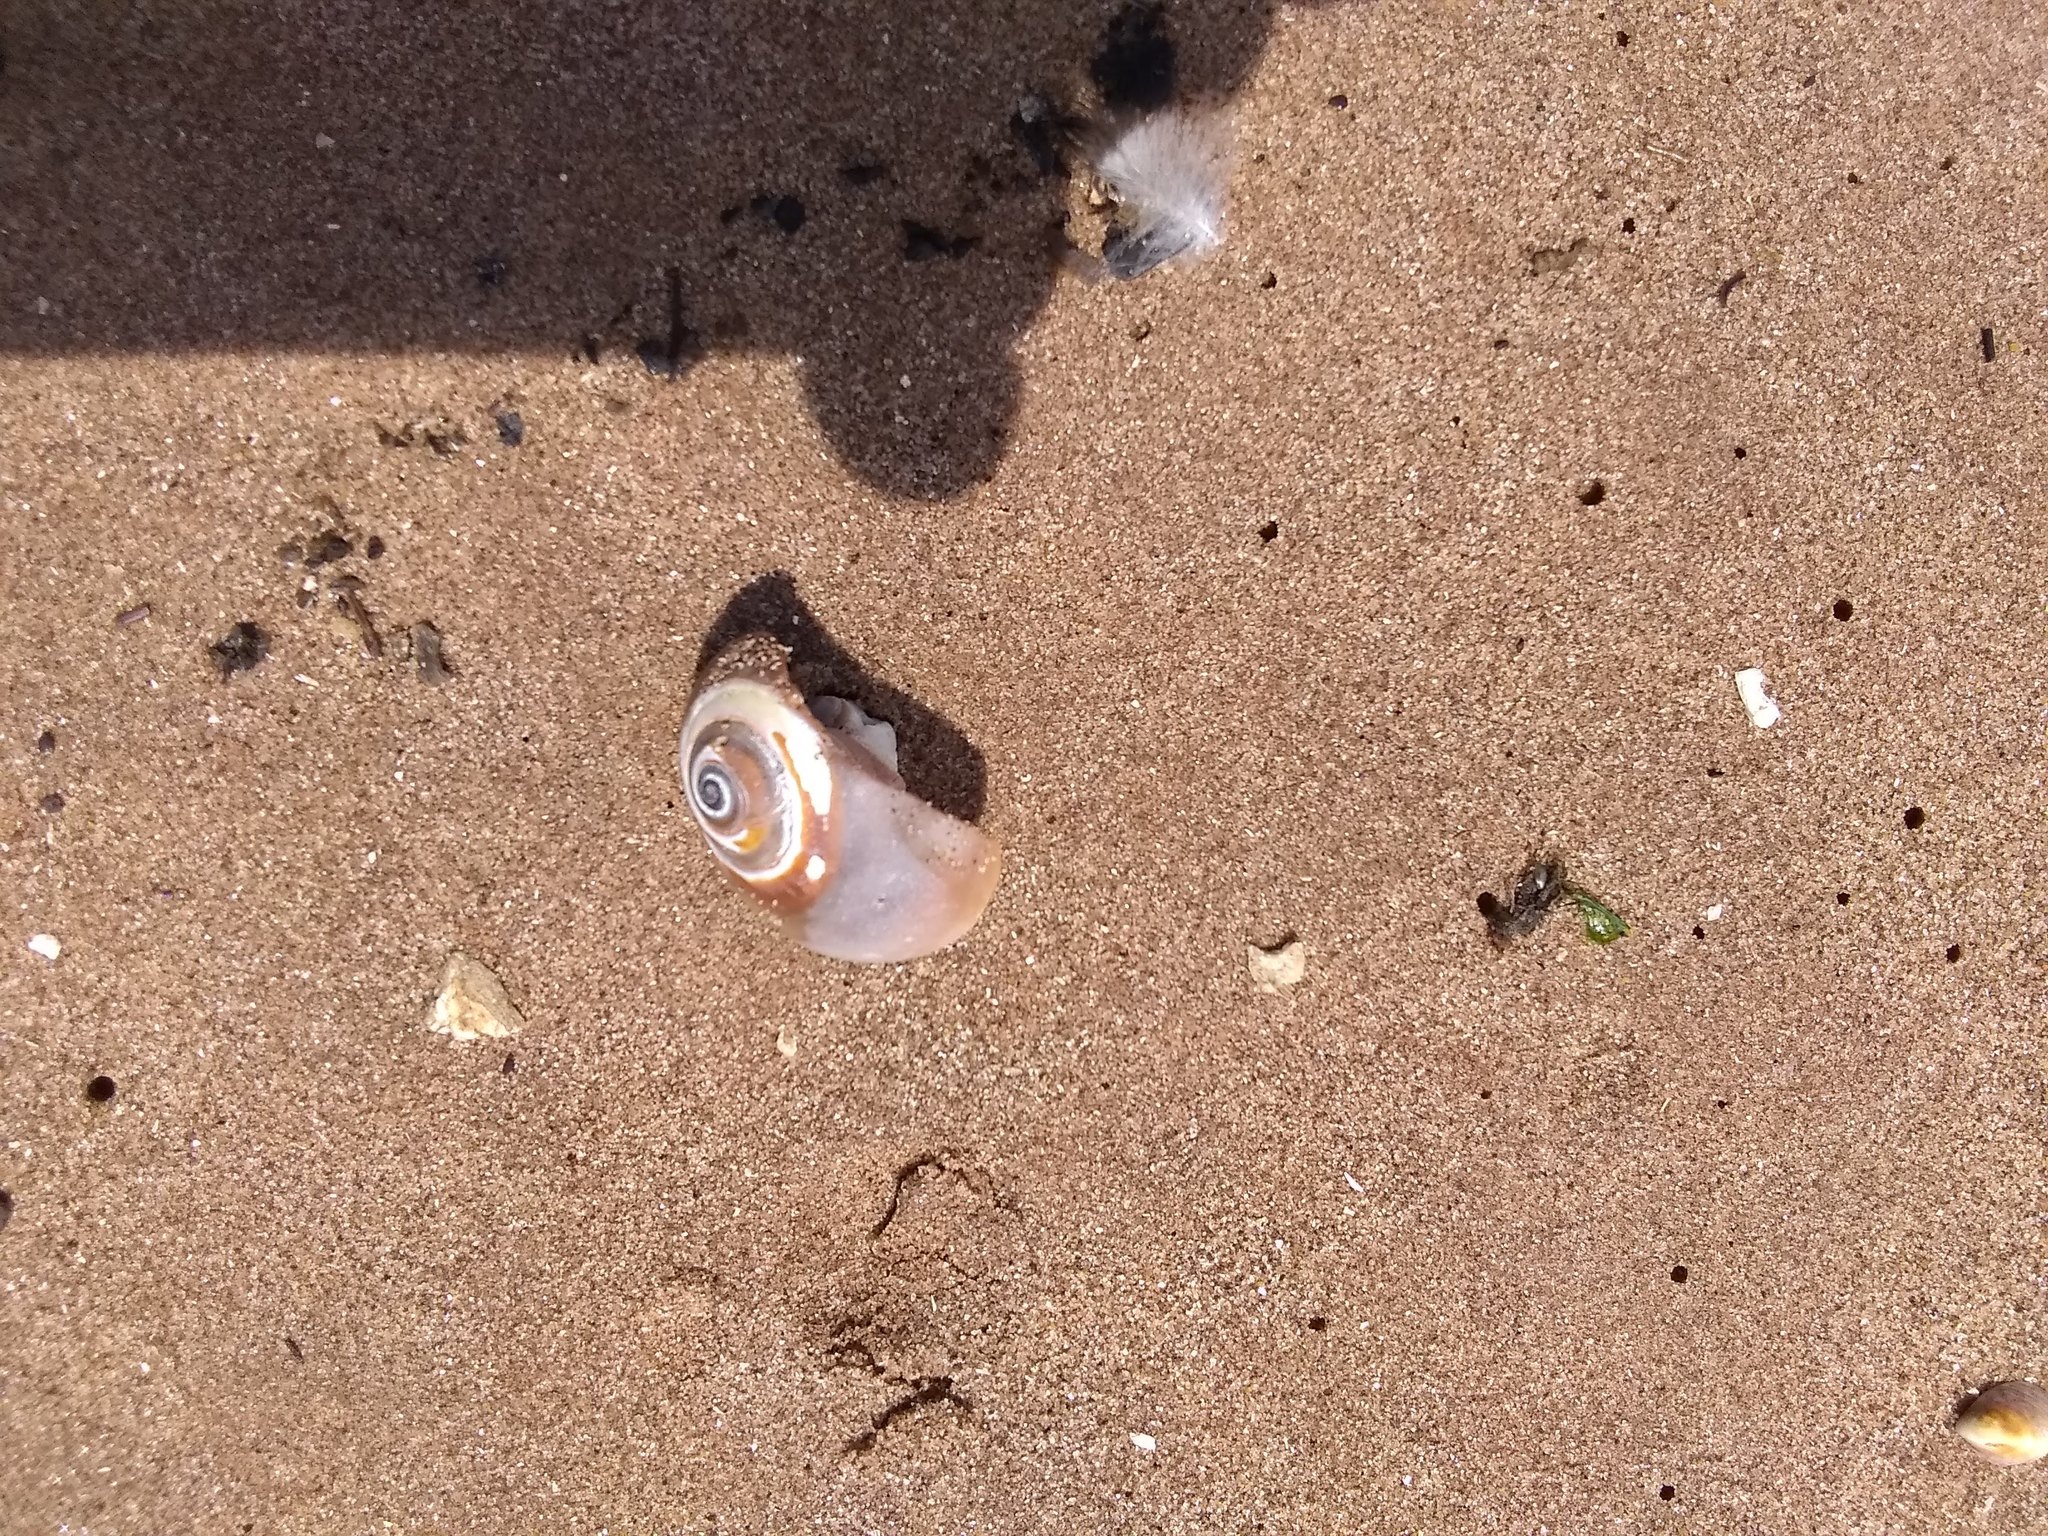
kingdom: Animalia
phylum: Mollusca
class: Gastropoda
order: Littorinimorpha
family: Naticidae
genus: Neverita
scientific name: Neverita duplicata
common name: Lobed moonsnail
